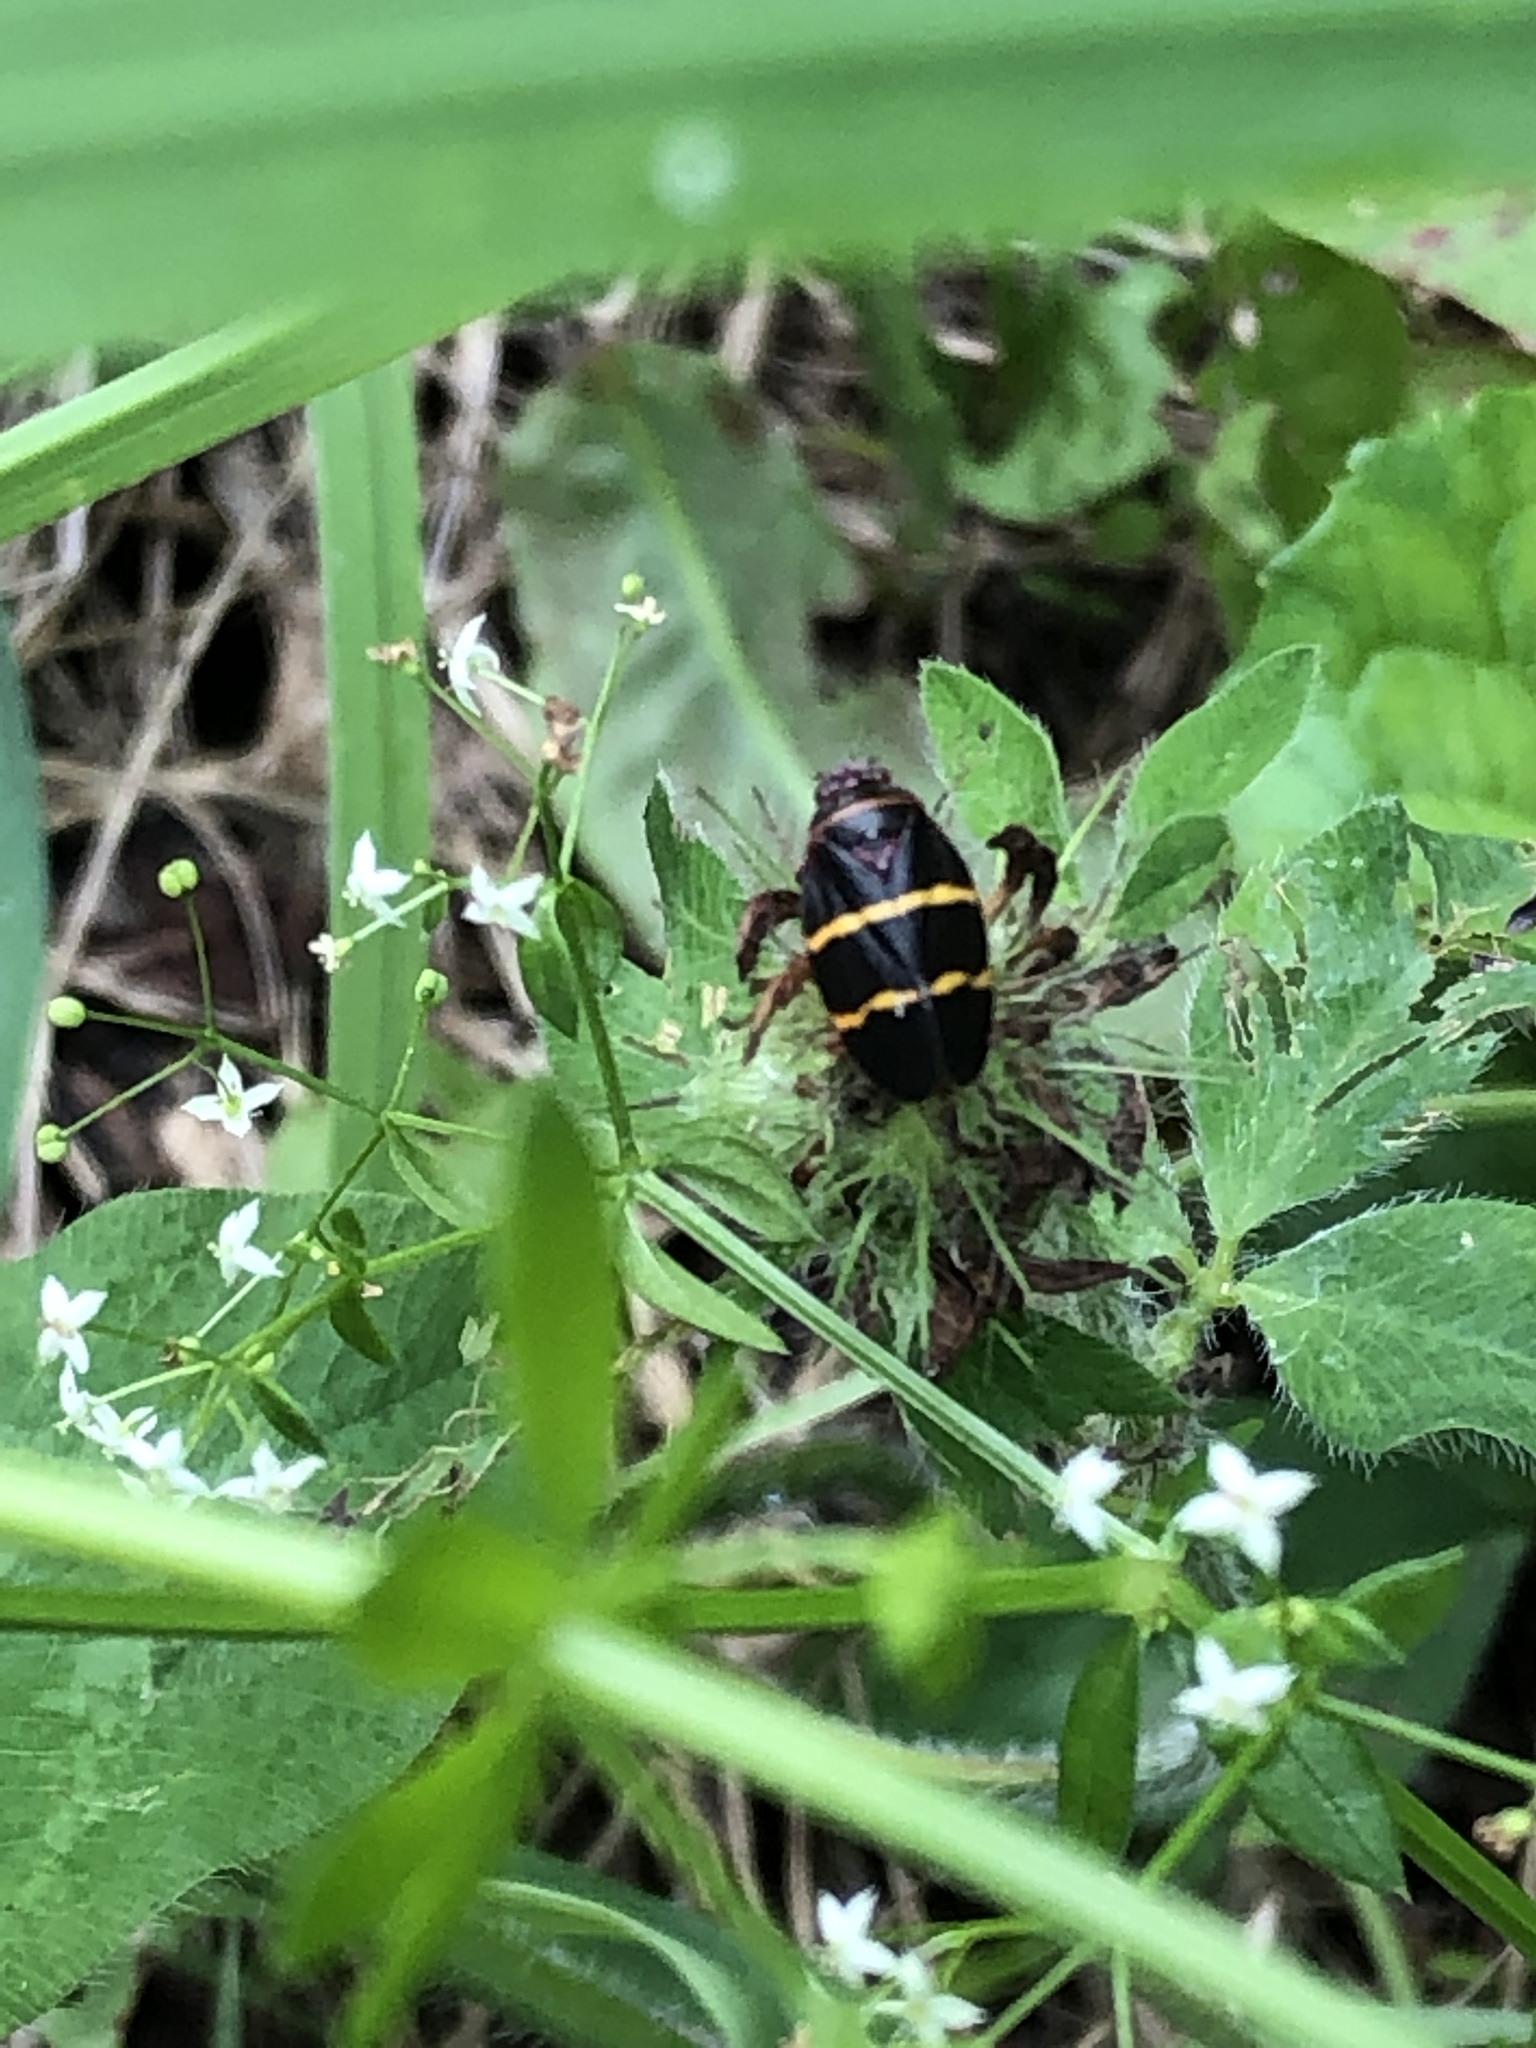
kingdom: Animalia
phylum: Arthropoda
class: Insecta
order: Hemiptera
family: Cercopidae
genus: Prosapia
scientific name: Prosapia bicincta
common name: Twolined spittlebug
